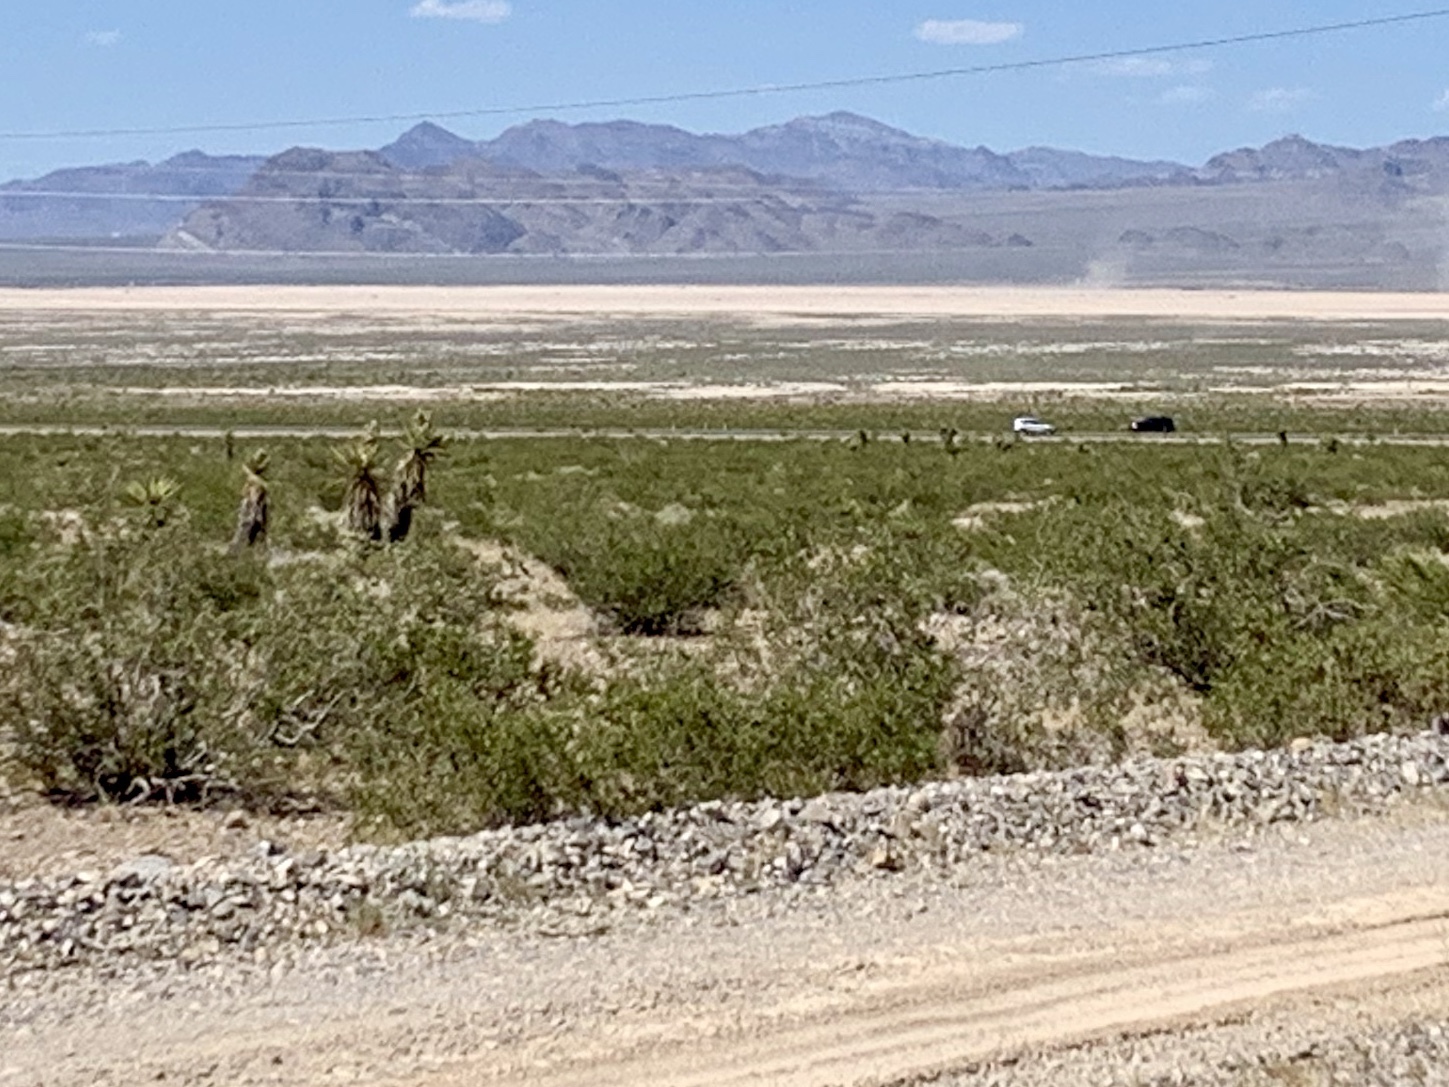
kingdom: Plantae
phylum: Tracheophyta
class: Magnoliopsida
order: Zygophyllales
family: Zygophyllaceae
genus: Larrea
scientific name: Larrea tridentata
